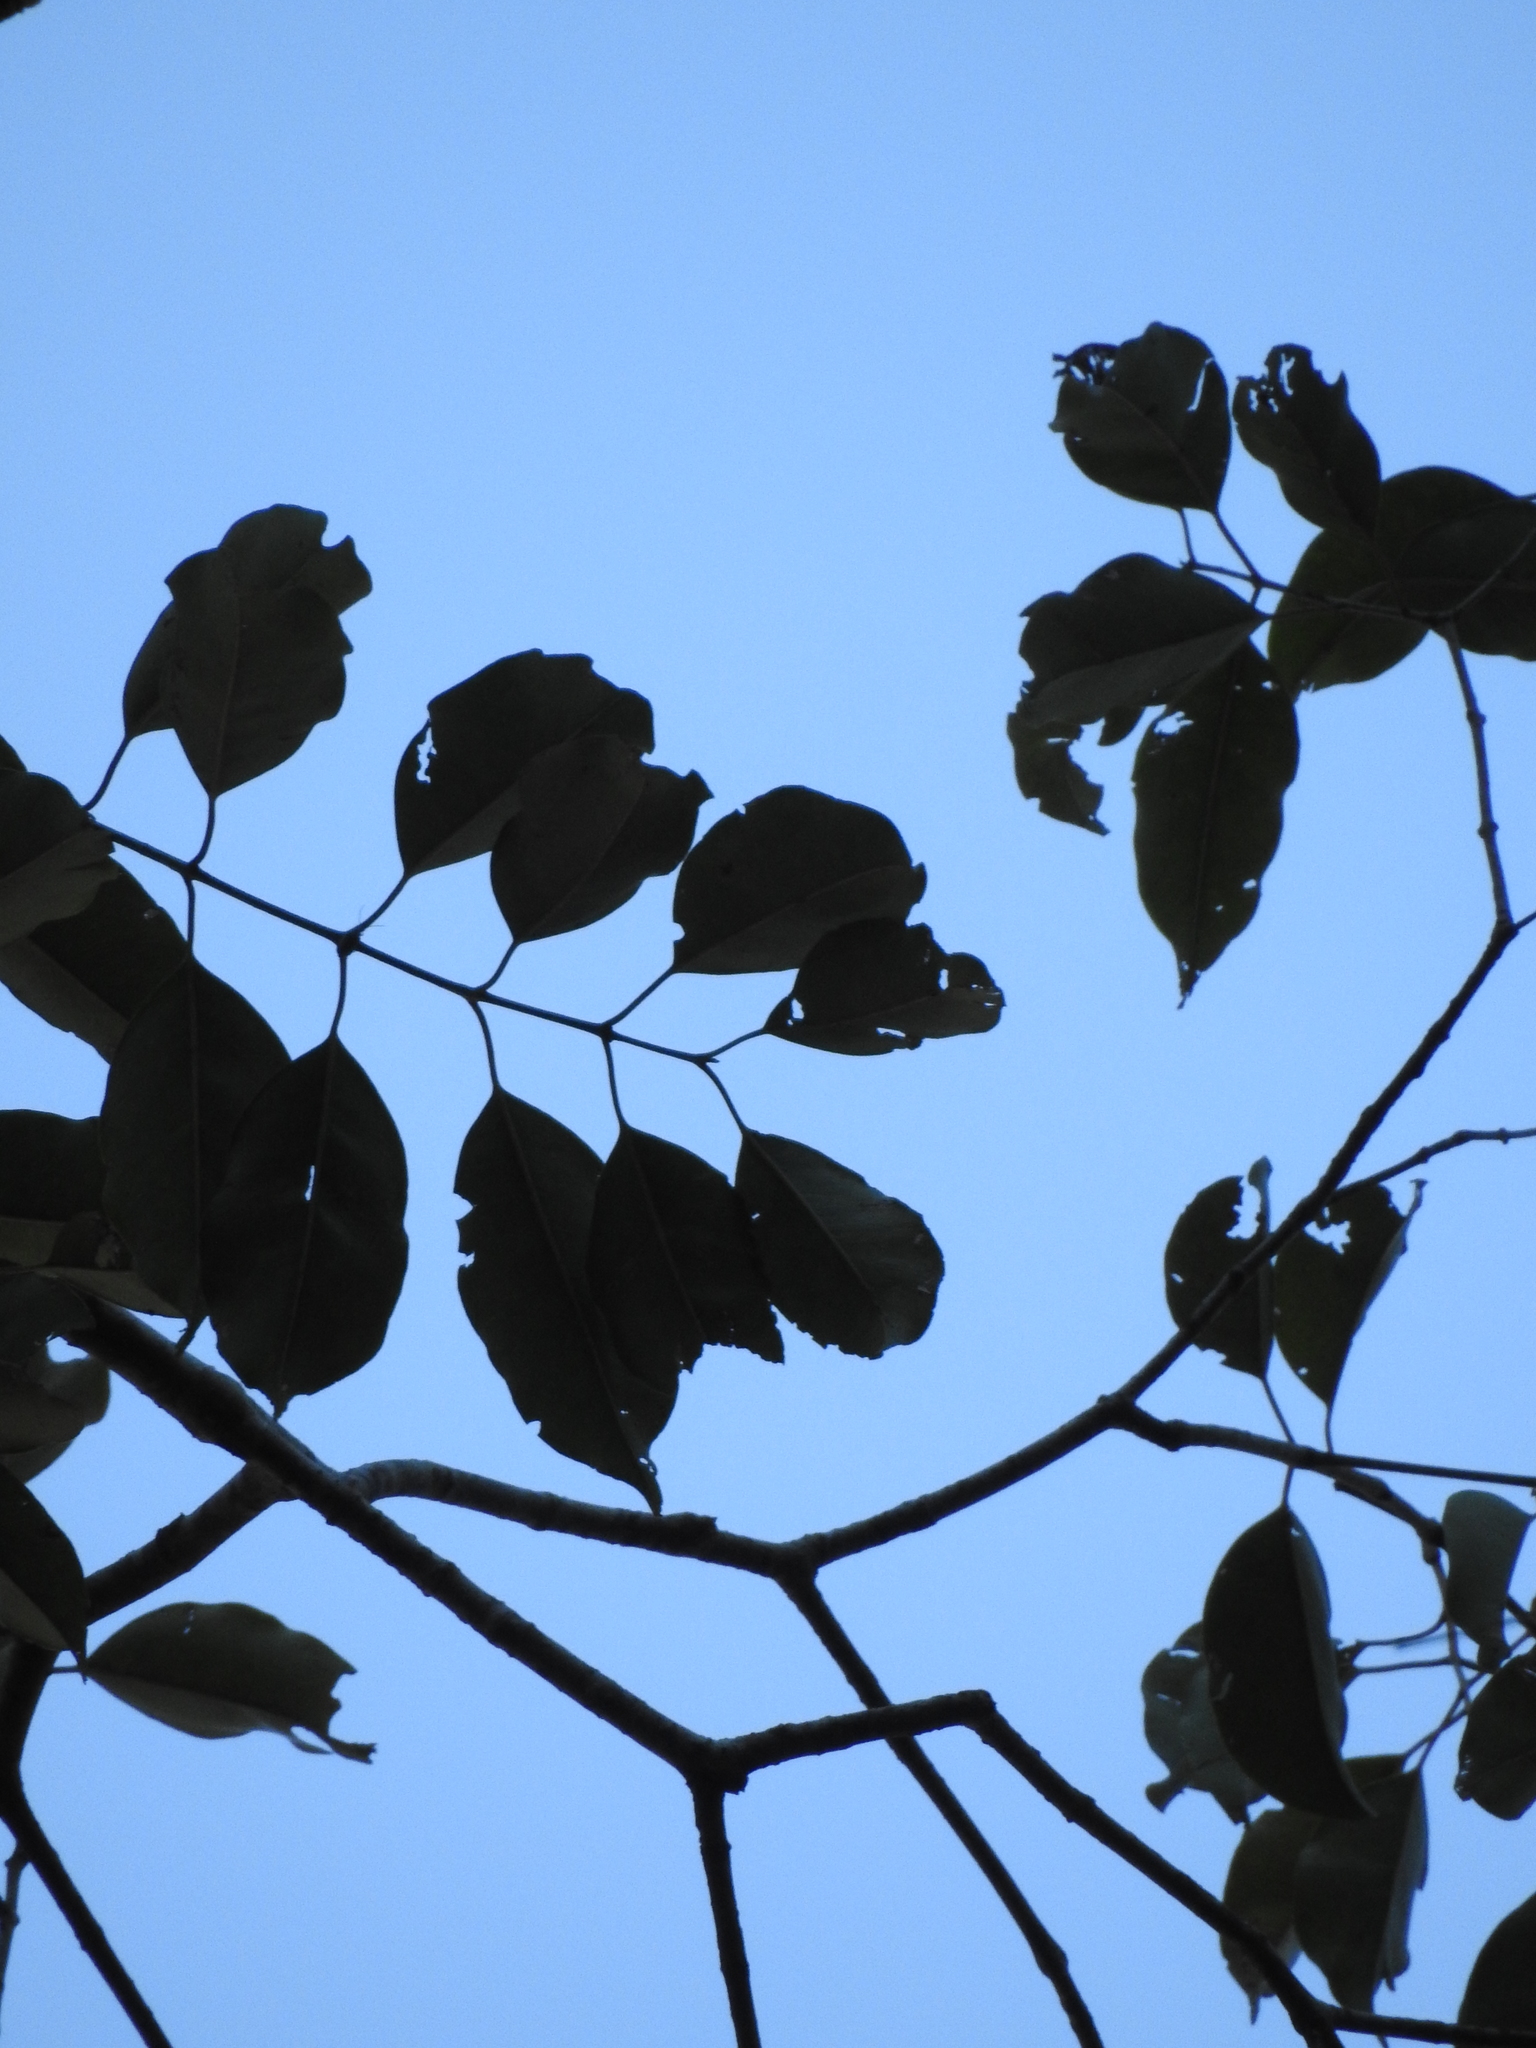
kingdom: Plantae
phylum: Tracheophyta
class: Magnoliopsida
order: Myrtales
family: Myrtaceae
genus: Syzygium
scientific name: Syzygium densiflorum
